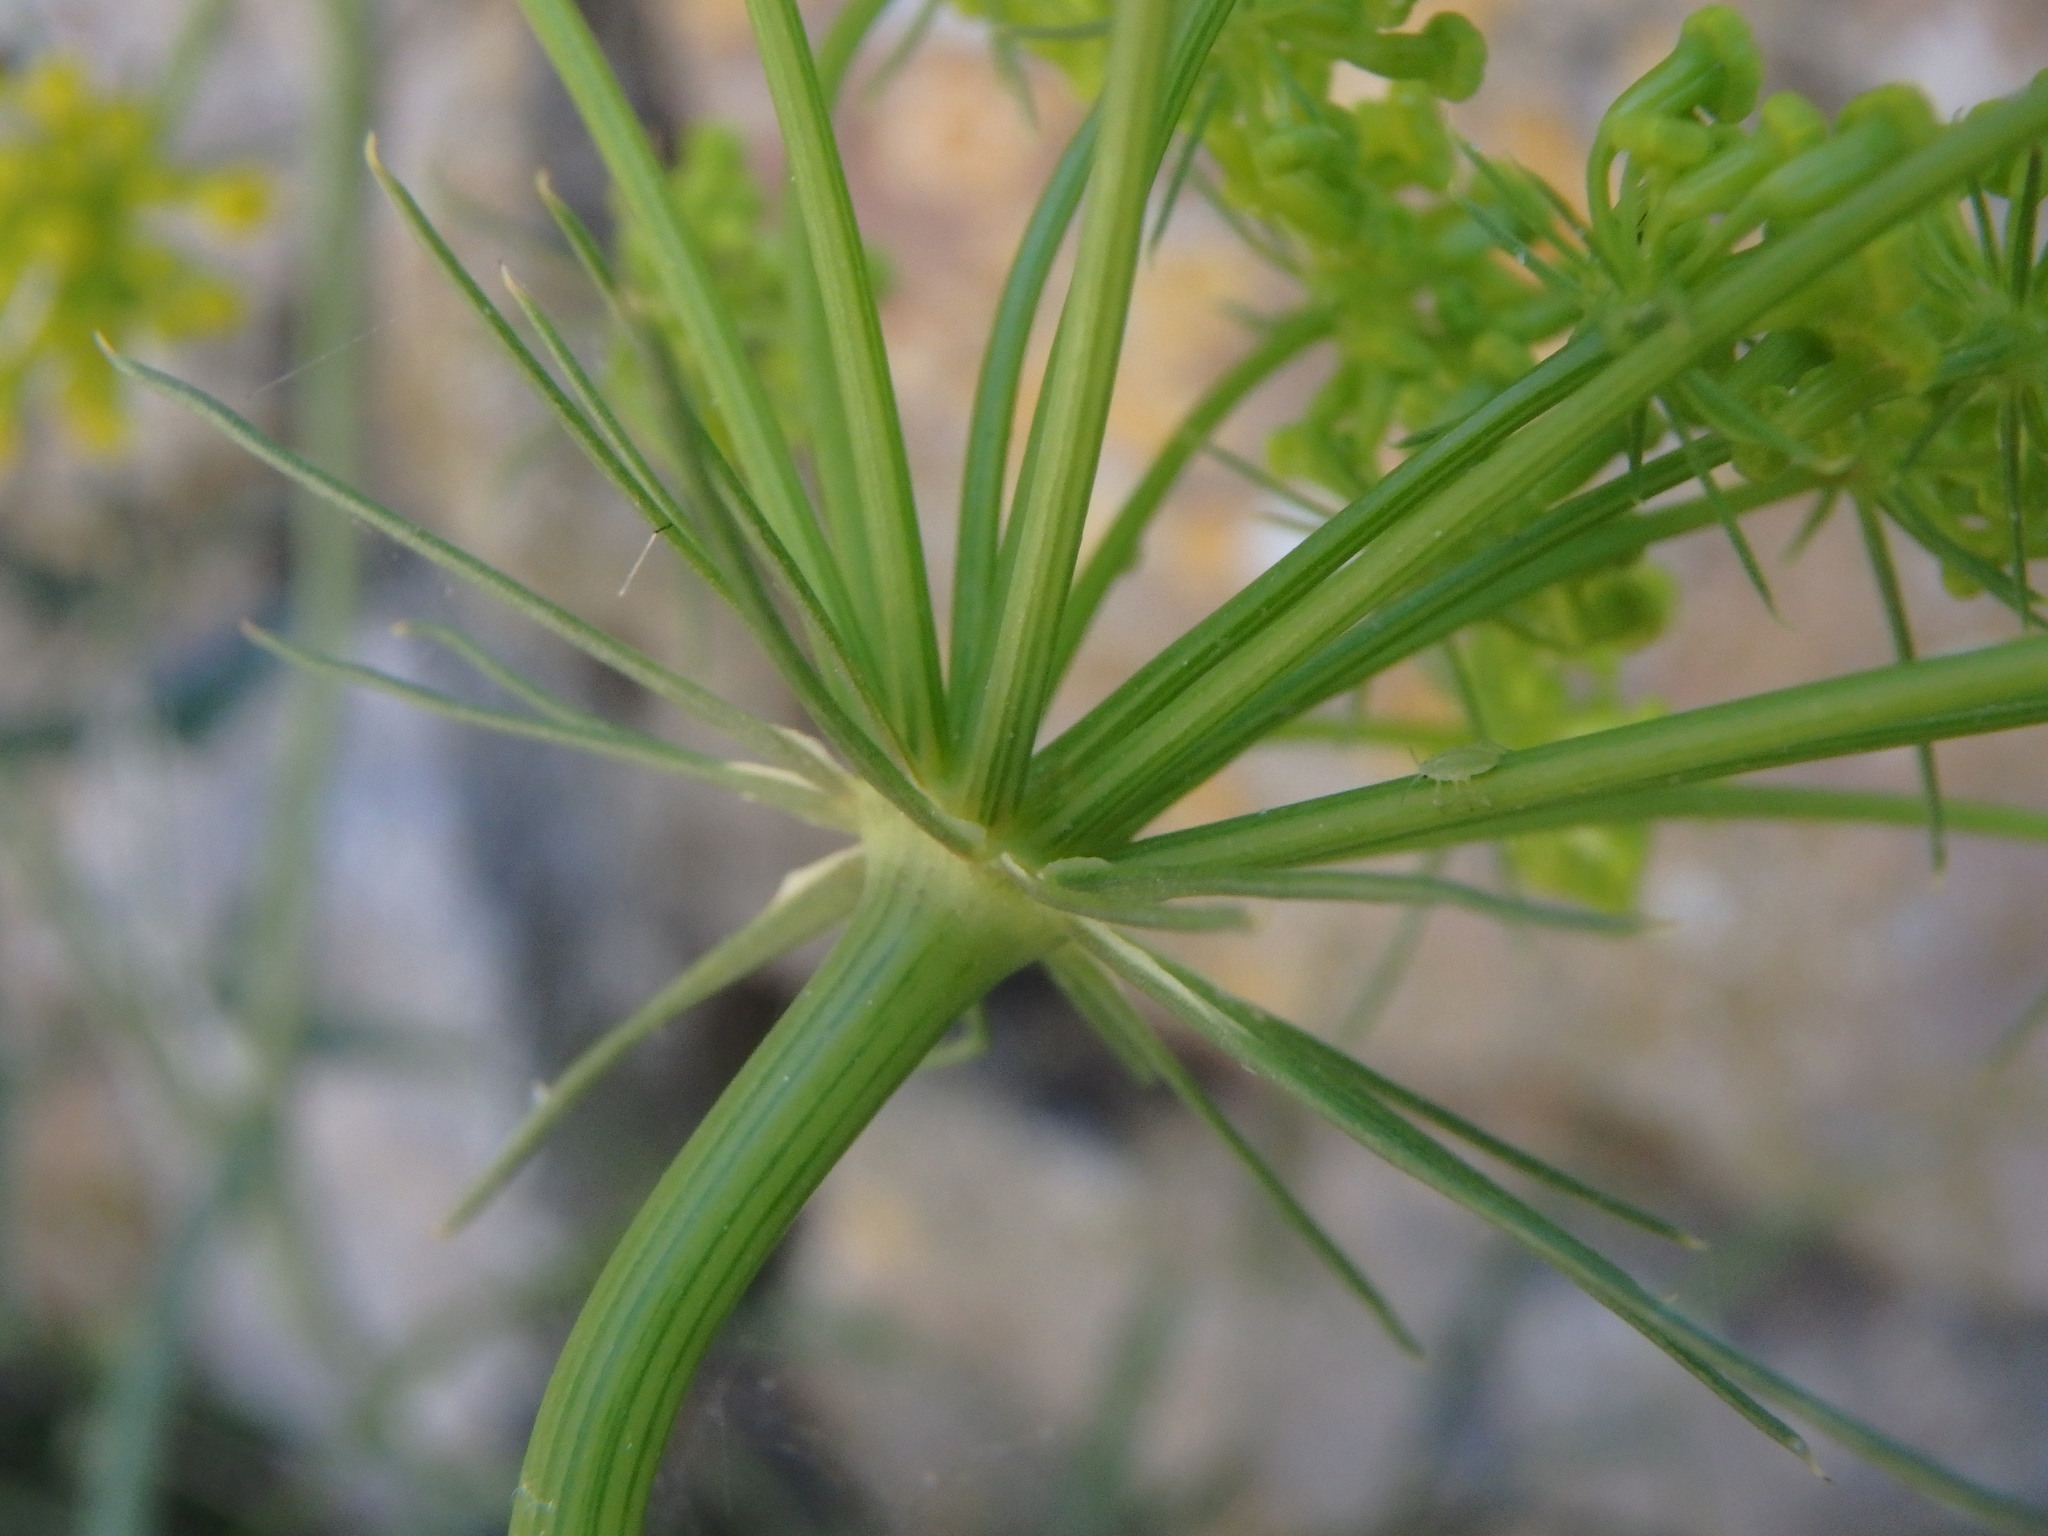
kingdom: Plantae
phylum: Tracheophyta
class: Magnoliopsida
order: Apiales
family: Apiaceae
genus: Kundmannia
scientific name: Kundmannia sicula
